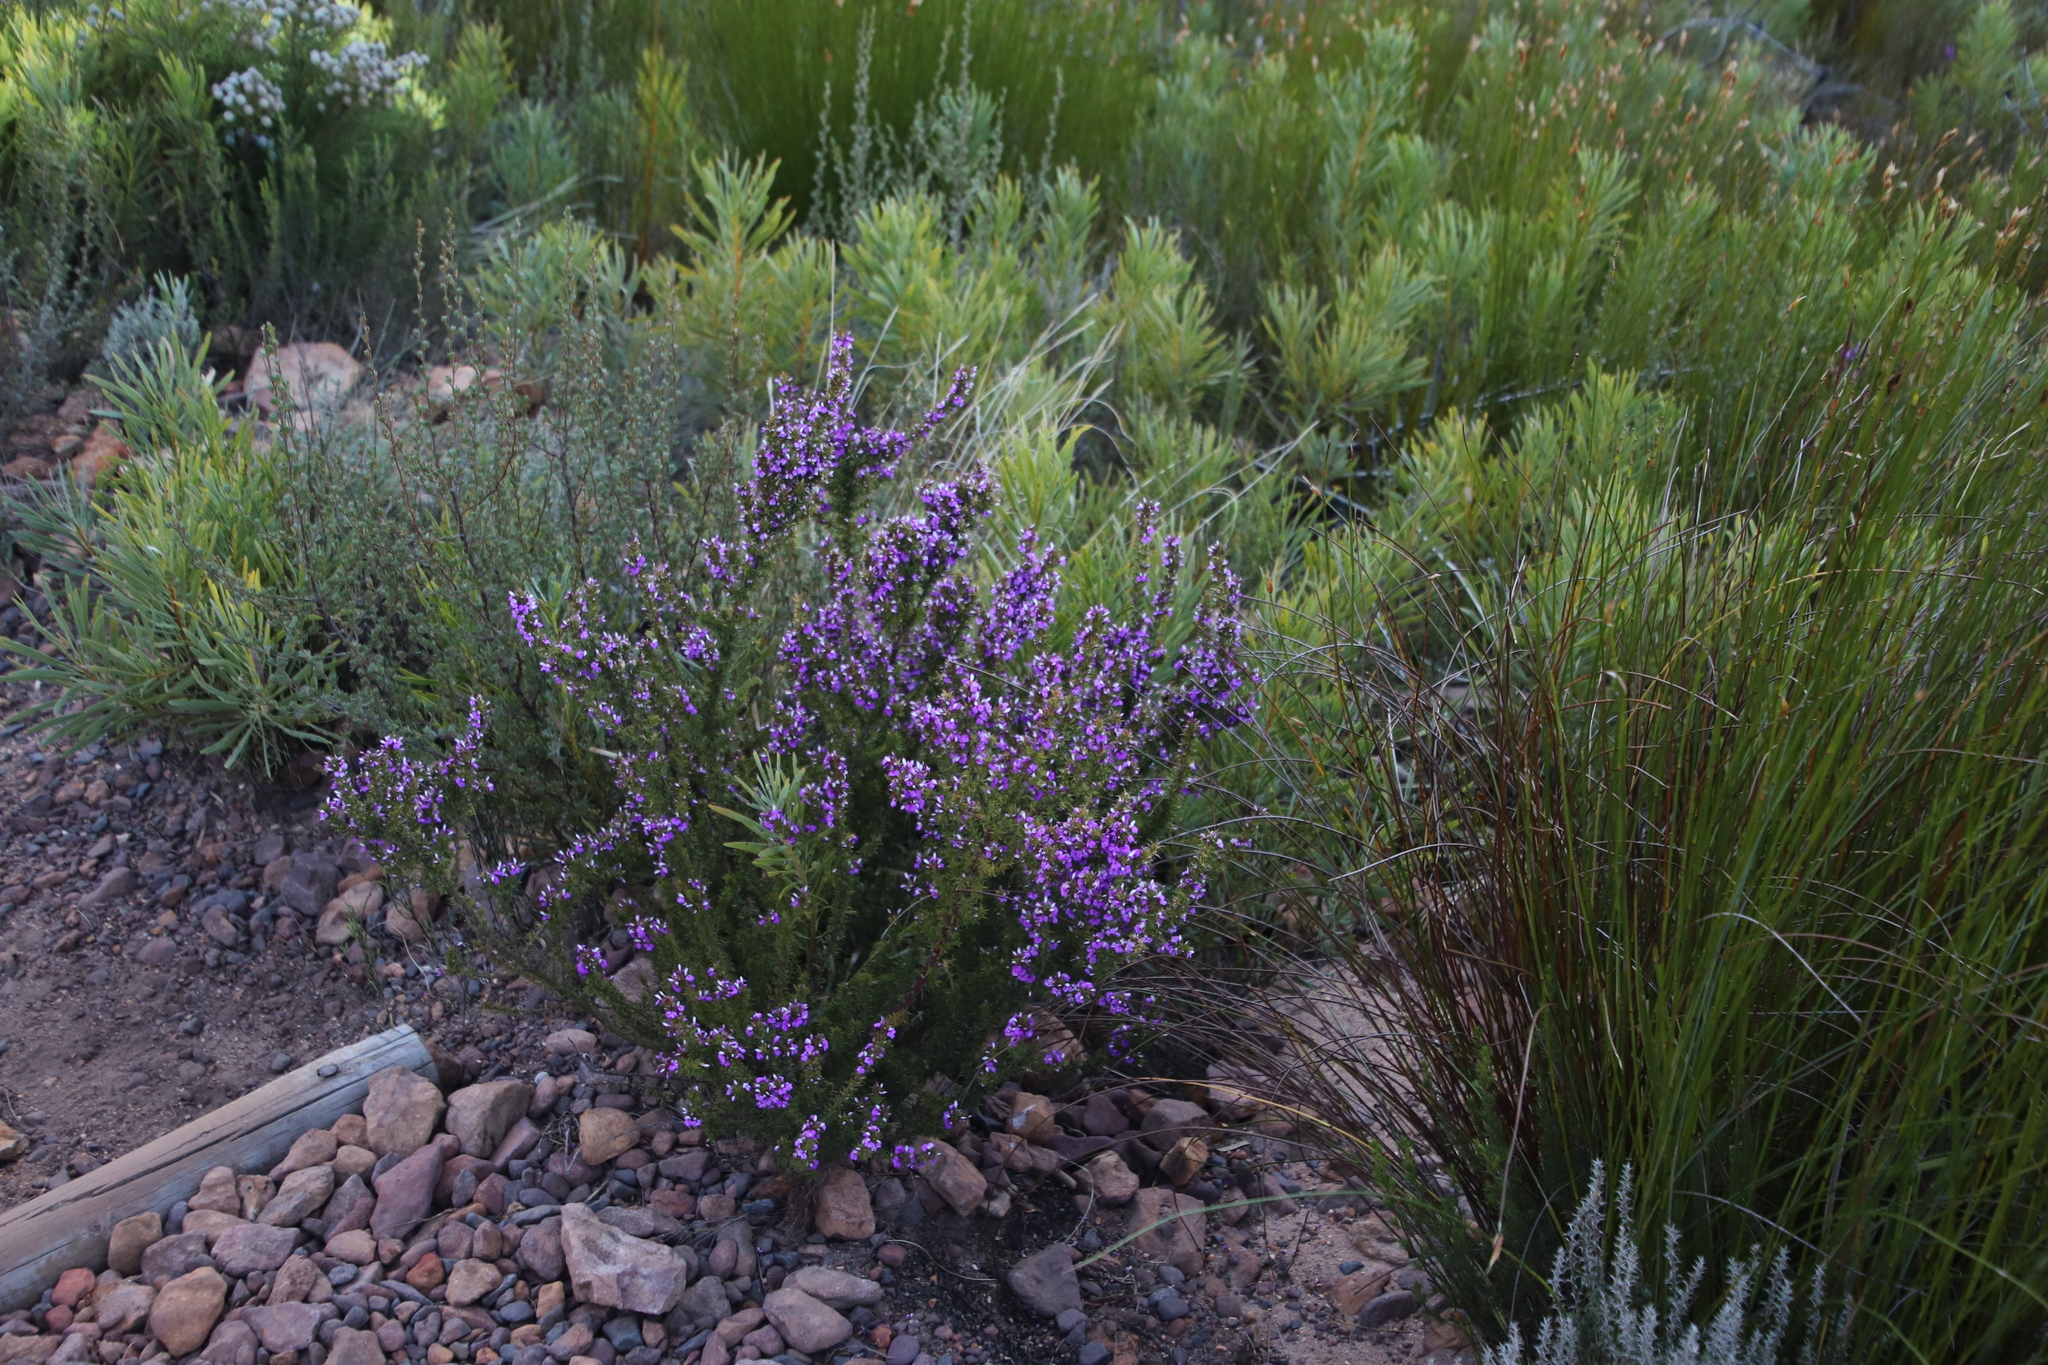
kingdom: Plantae
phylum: Tracheophyta
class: Magnoliopsida
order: Fabales
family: Polygalaceae
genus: Muraltia
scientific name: Muraltia heisteria
